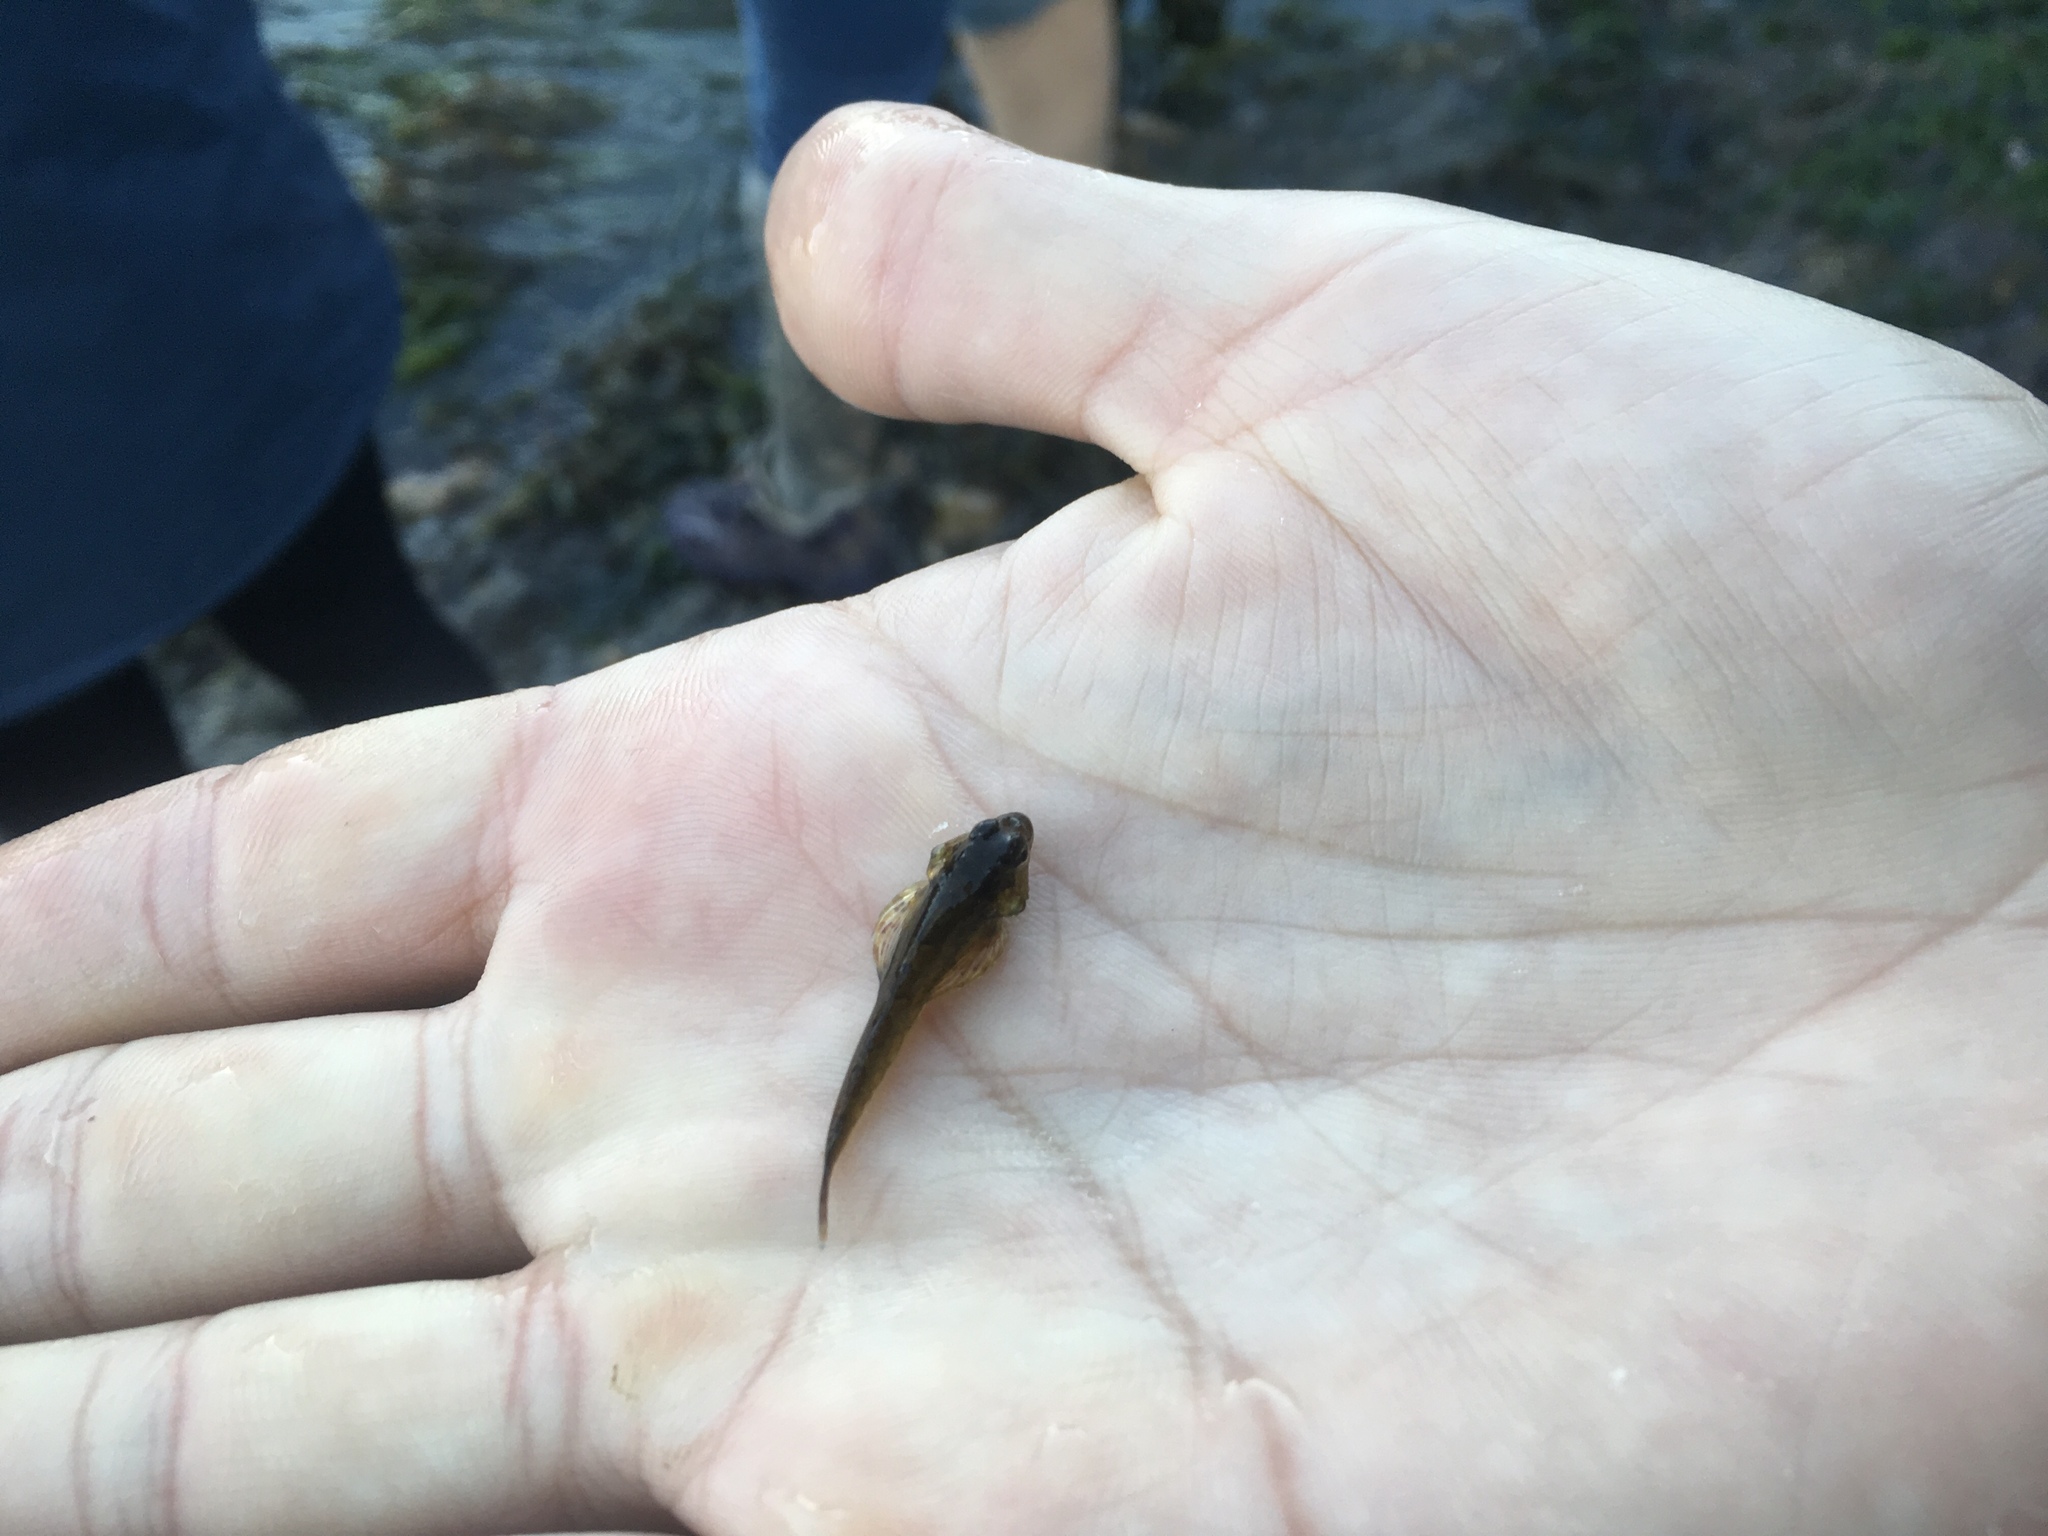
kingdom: Animalia
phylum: Chordata
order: Scorpaeniformes
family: Cottidae
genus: Oligocottus
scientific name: Oligocottus rimensis
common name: Saddleback sculpin
